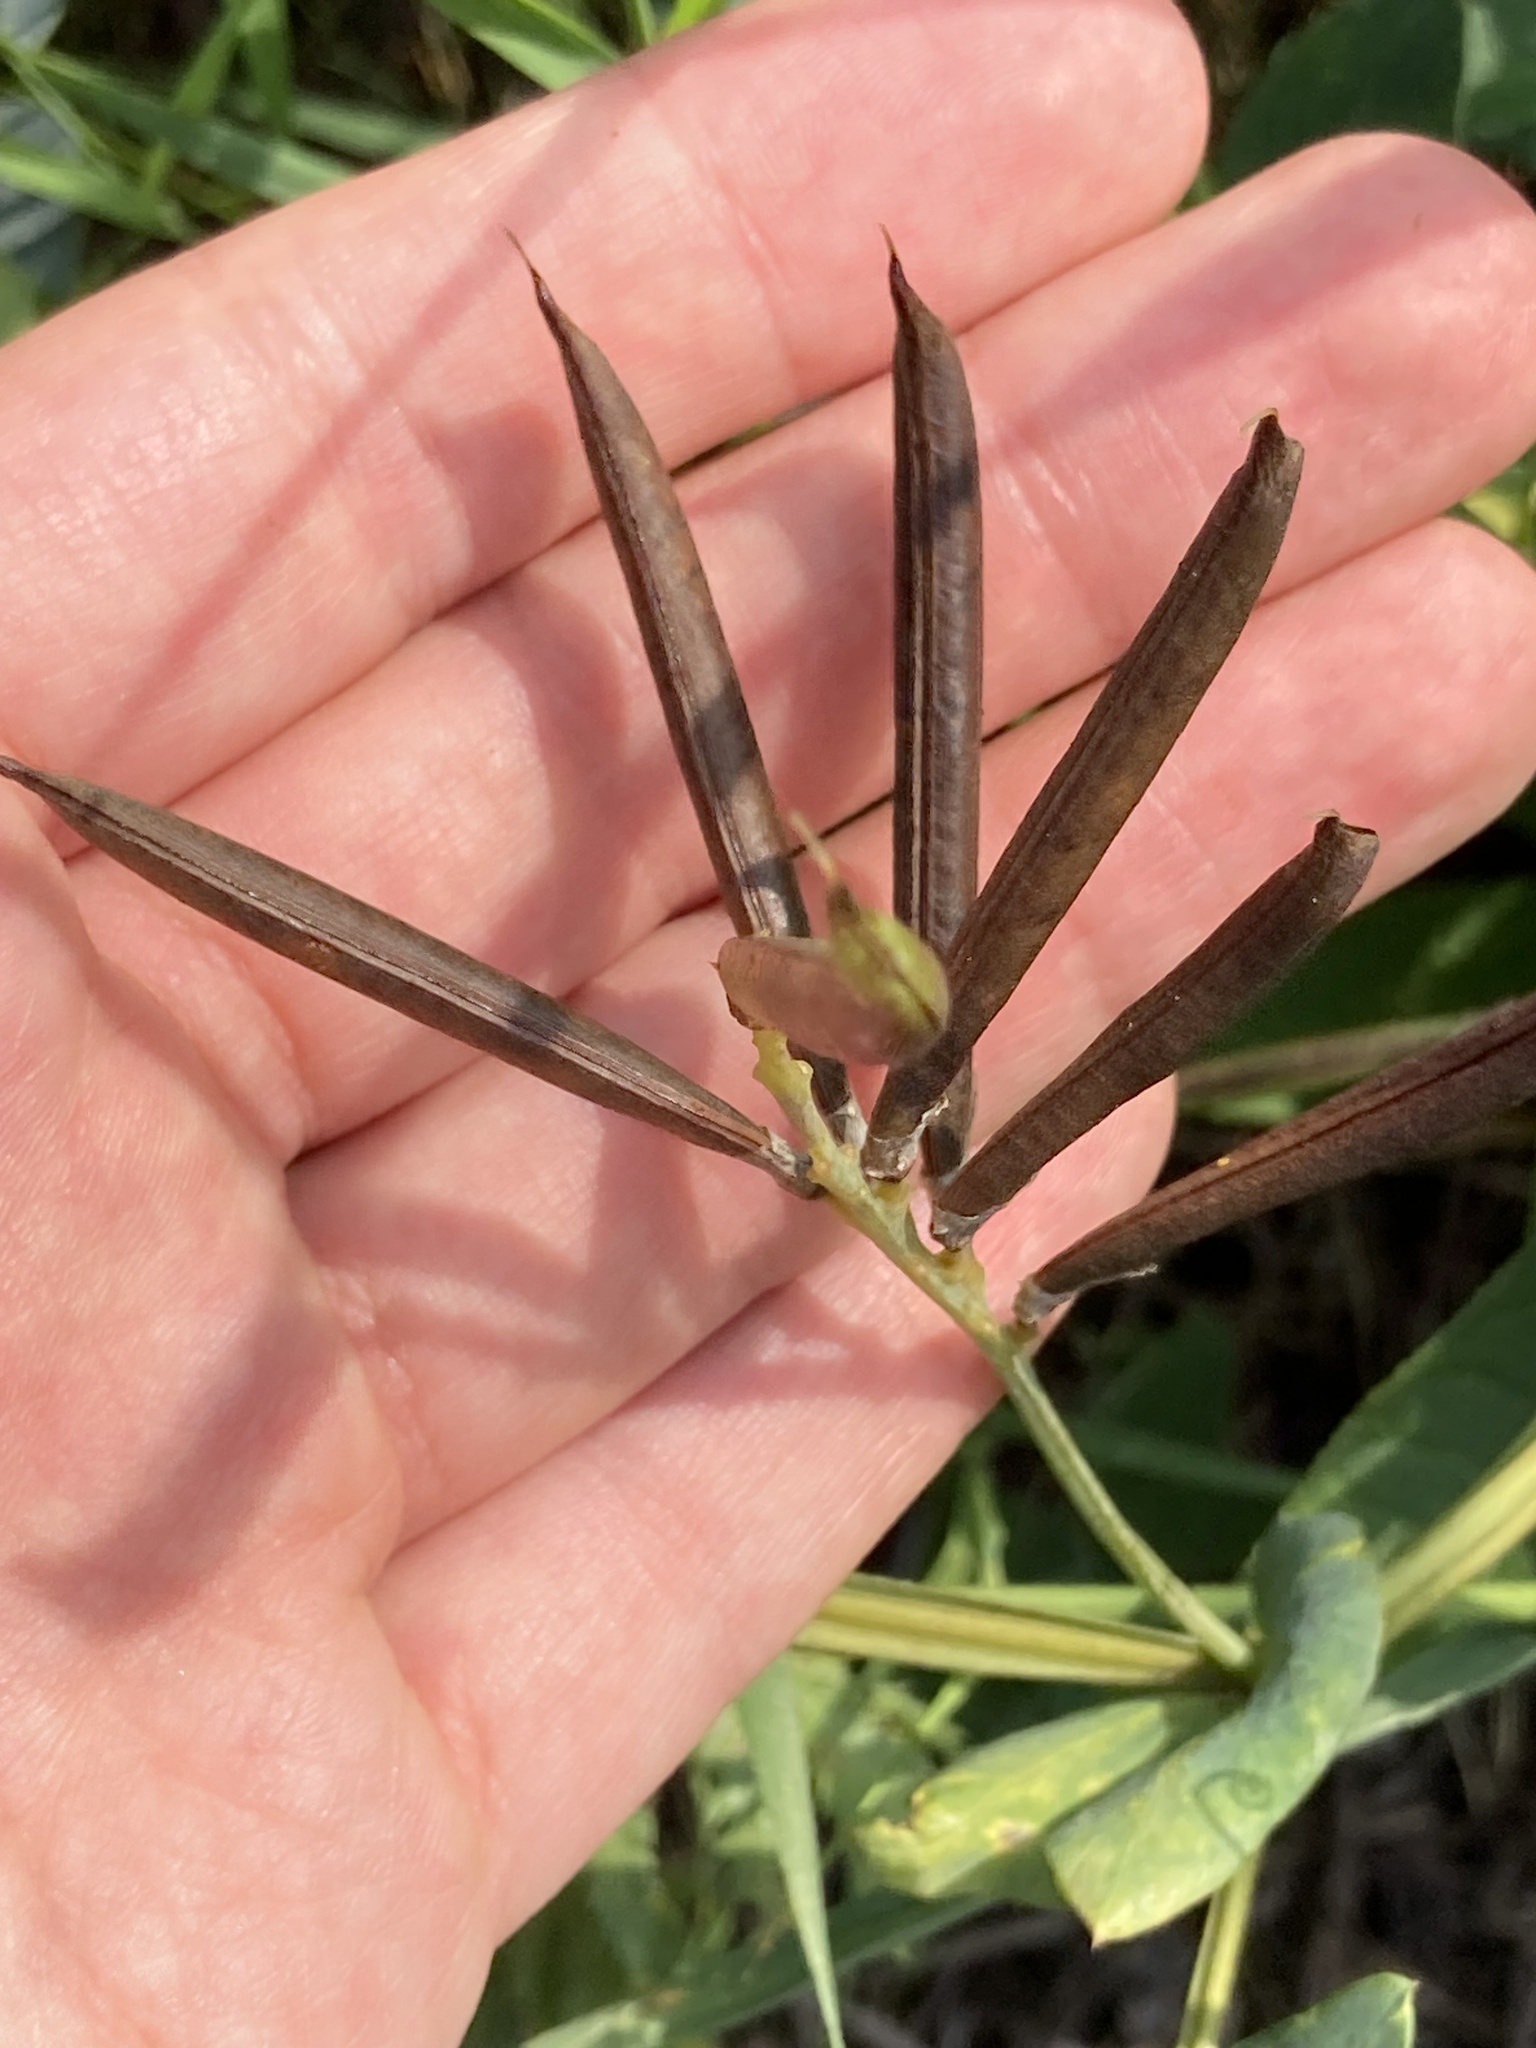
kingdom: Plantae
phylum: Tracheophyta
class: Magnoliopsida
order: Fabales
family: Fabaceae
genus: Lathyrus
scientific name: Lathyrus pisiformis
